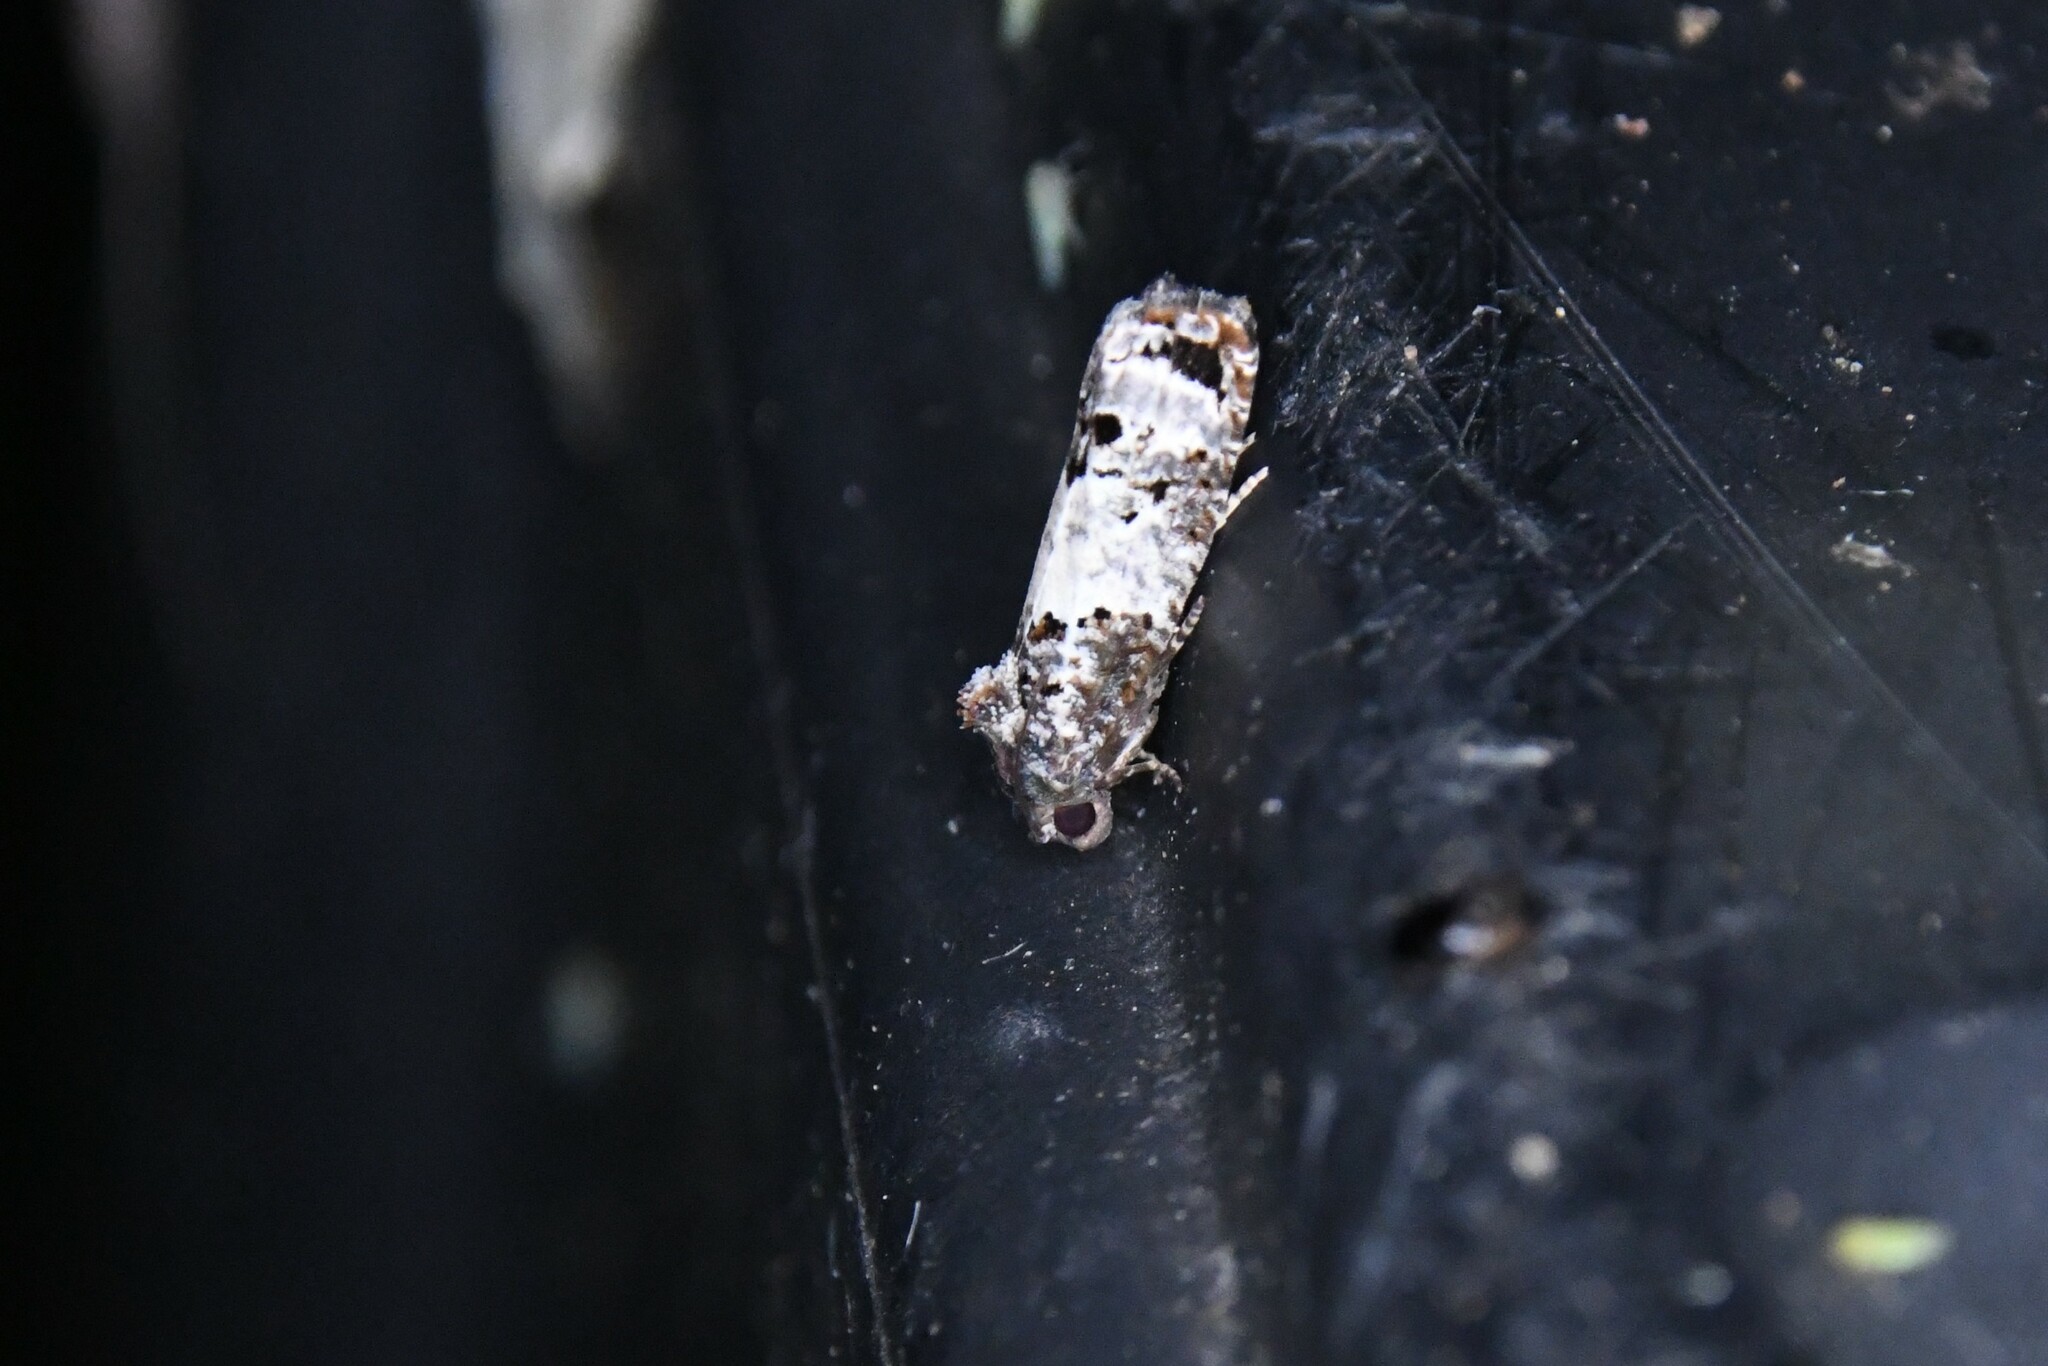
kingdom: Animalia
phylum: Arthropoda
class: Insecta
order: Lepidoptera
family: Tortricidae
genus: Epiblema
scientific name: Epiblema carolinana
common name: Gray-blotched epiblema moth
